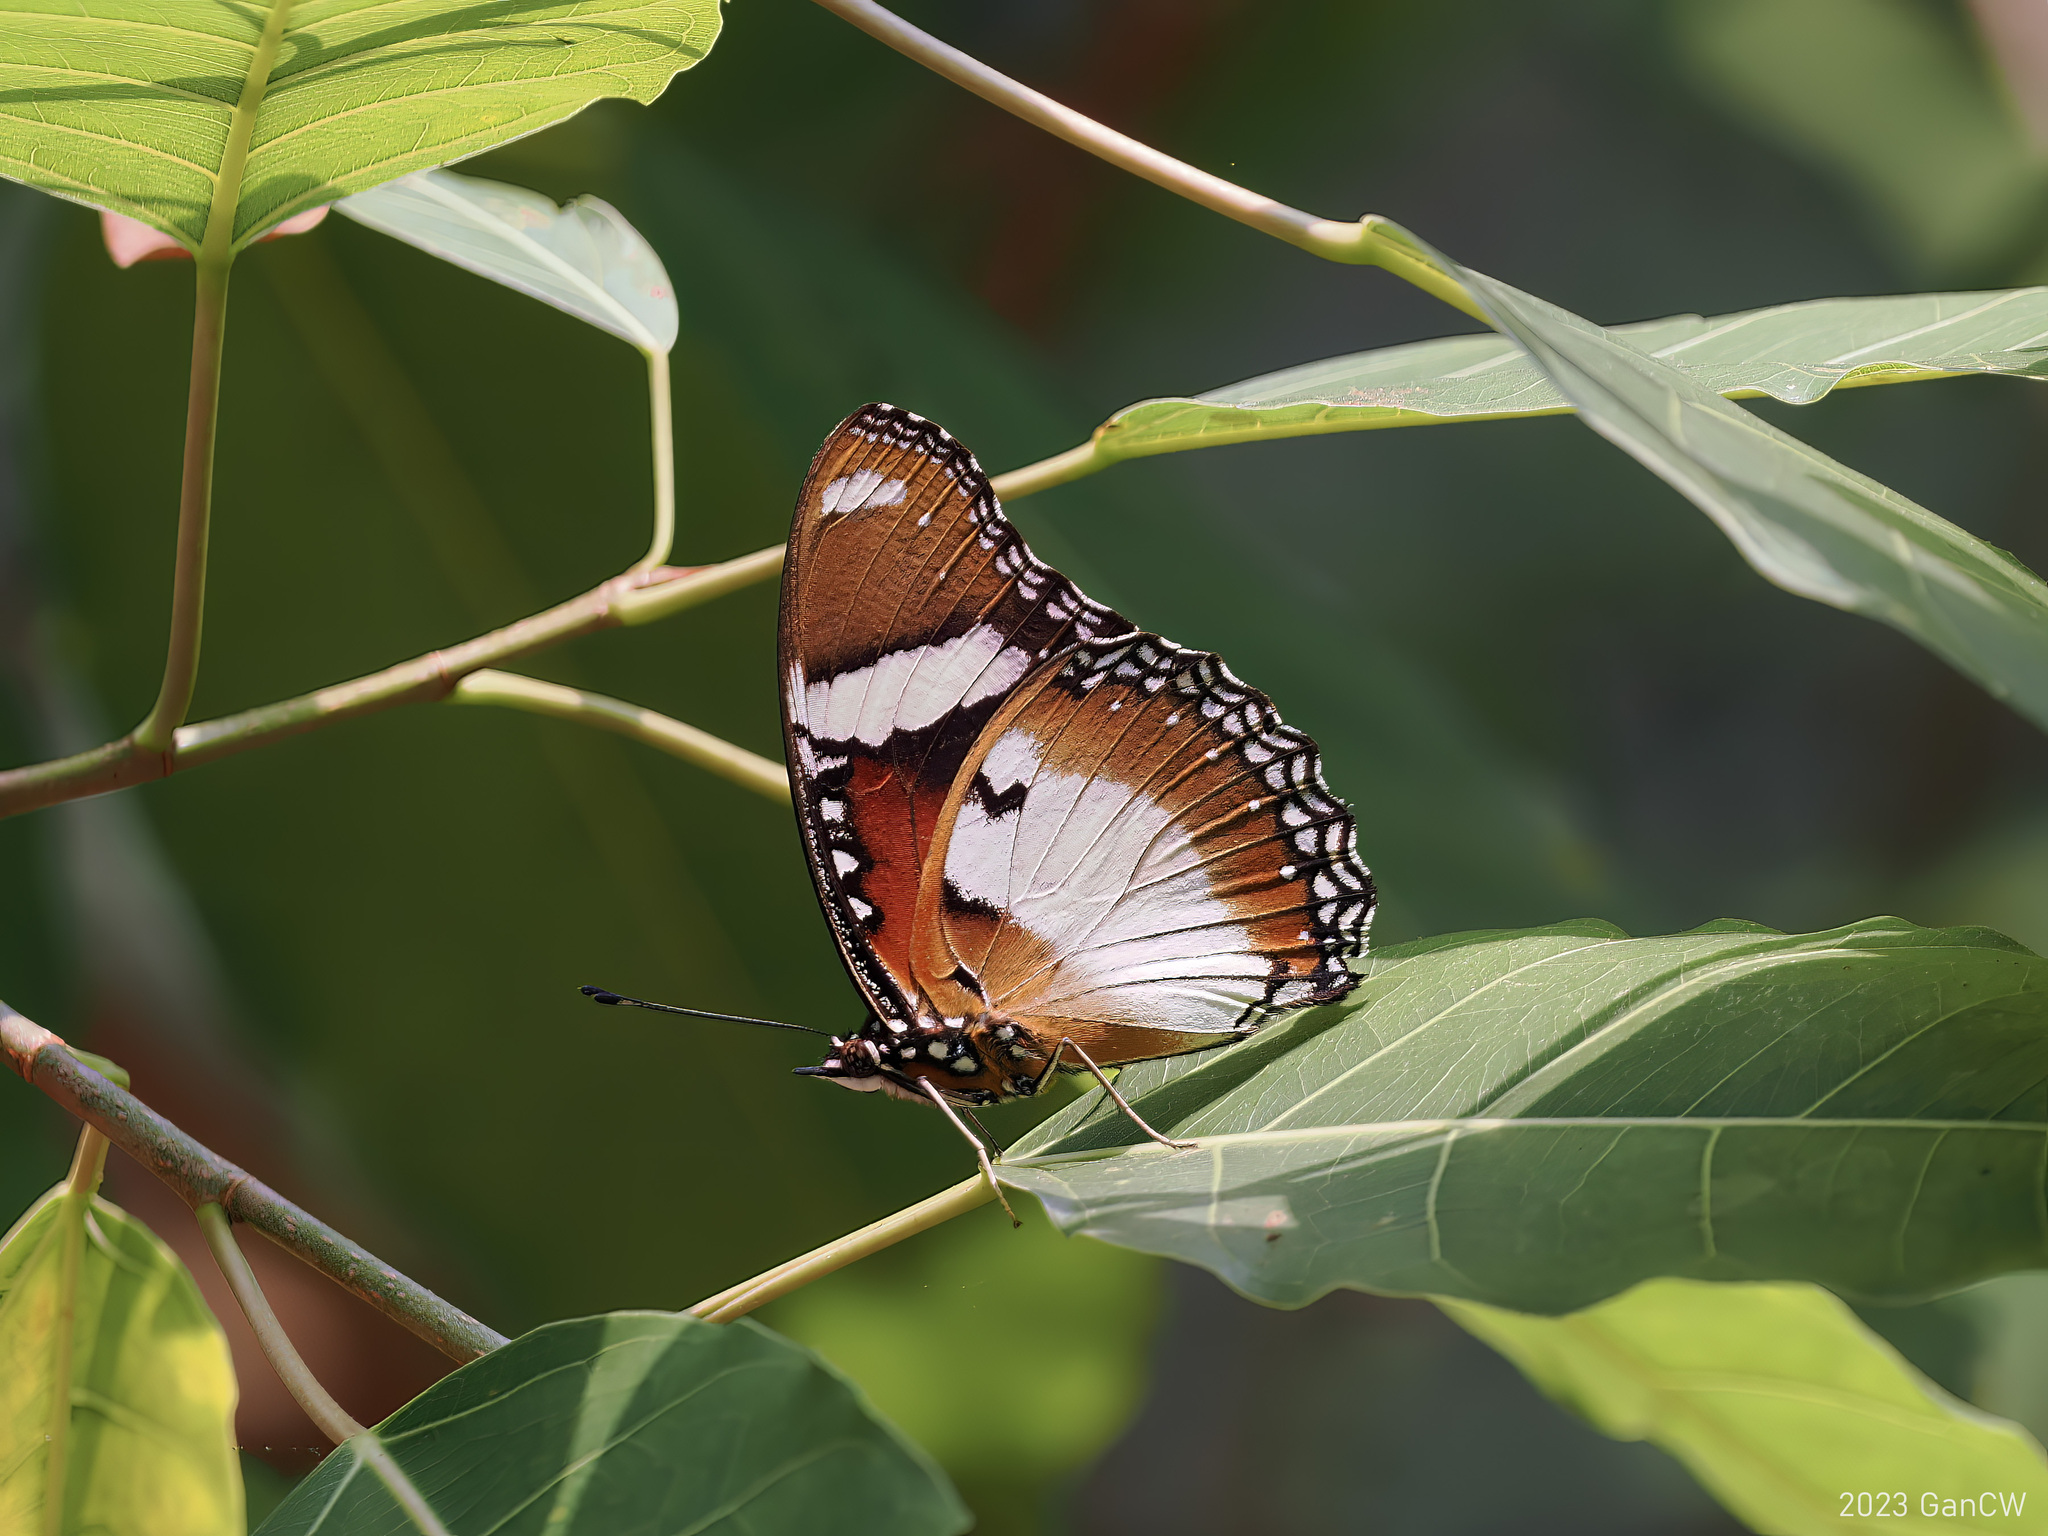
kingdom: Animalia
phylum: Arthropoda
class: Insecta
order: Lepidoptera
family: Nymphalidae
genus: Hypolimnas
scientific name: Hypolimnas misippus
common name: False plain tiger
